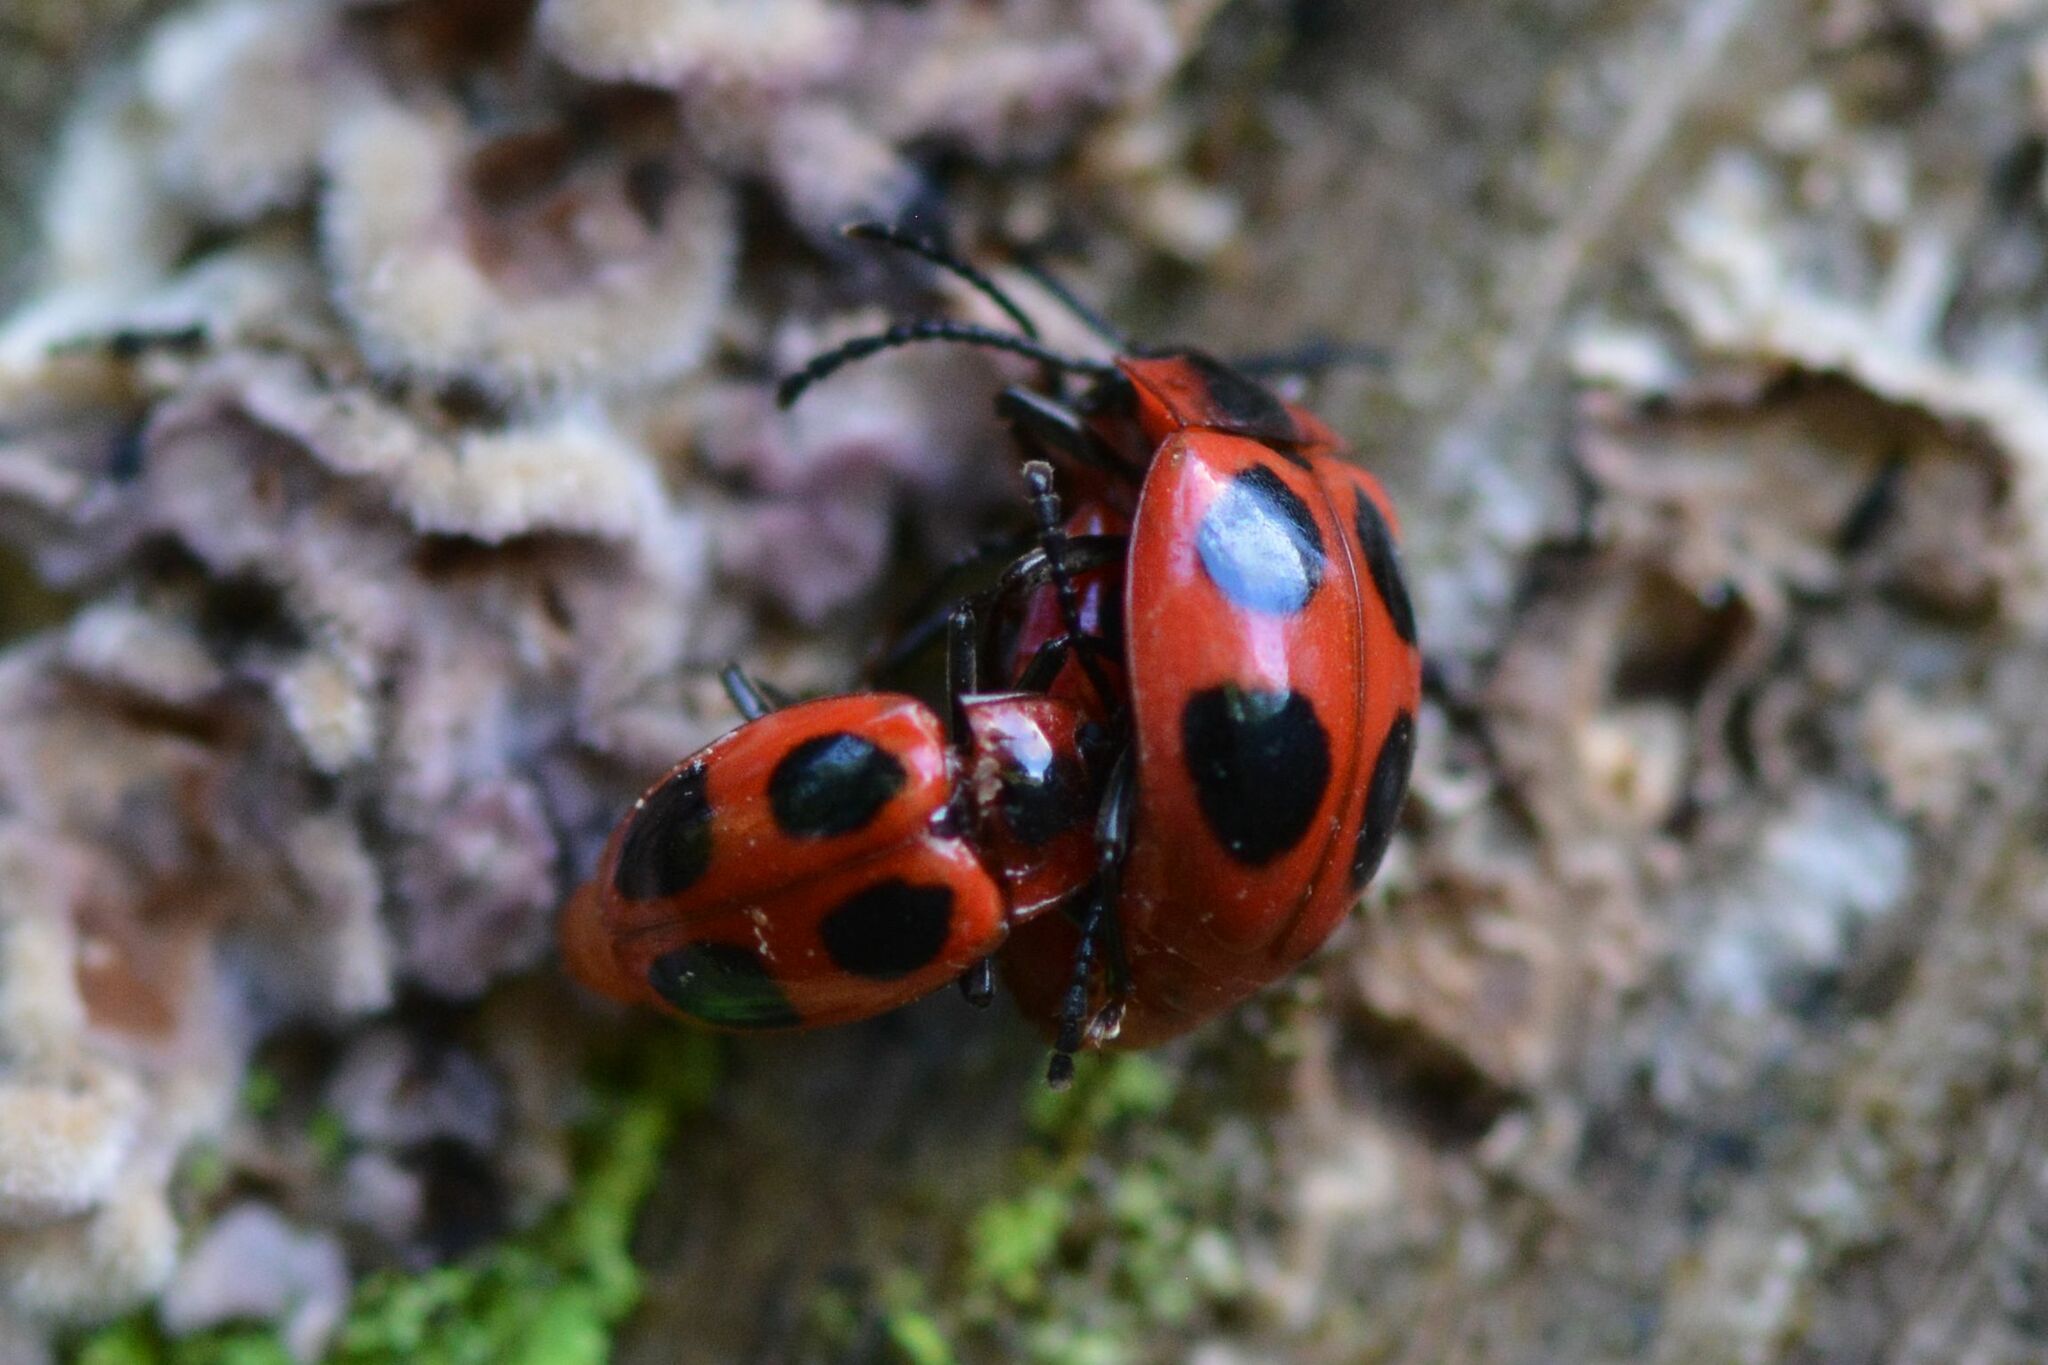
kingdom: Animalia
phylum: Arthropoda
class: Insecta
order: Coleoptera
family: Endomychidae
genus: Endomychus
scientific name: Endomychus coccineus
